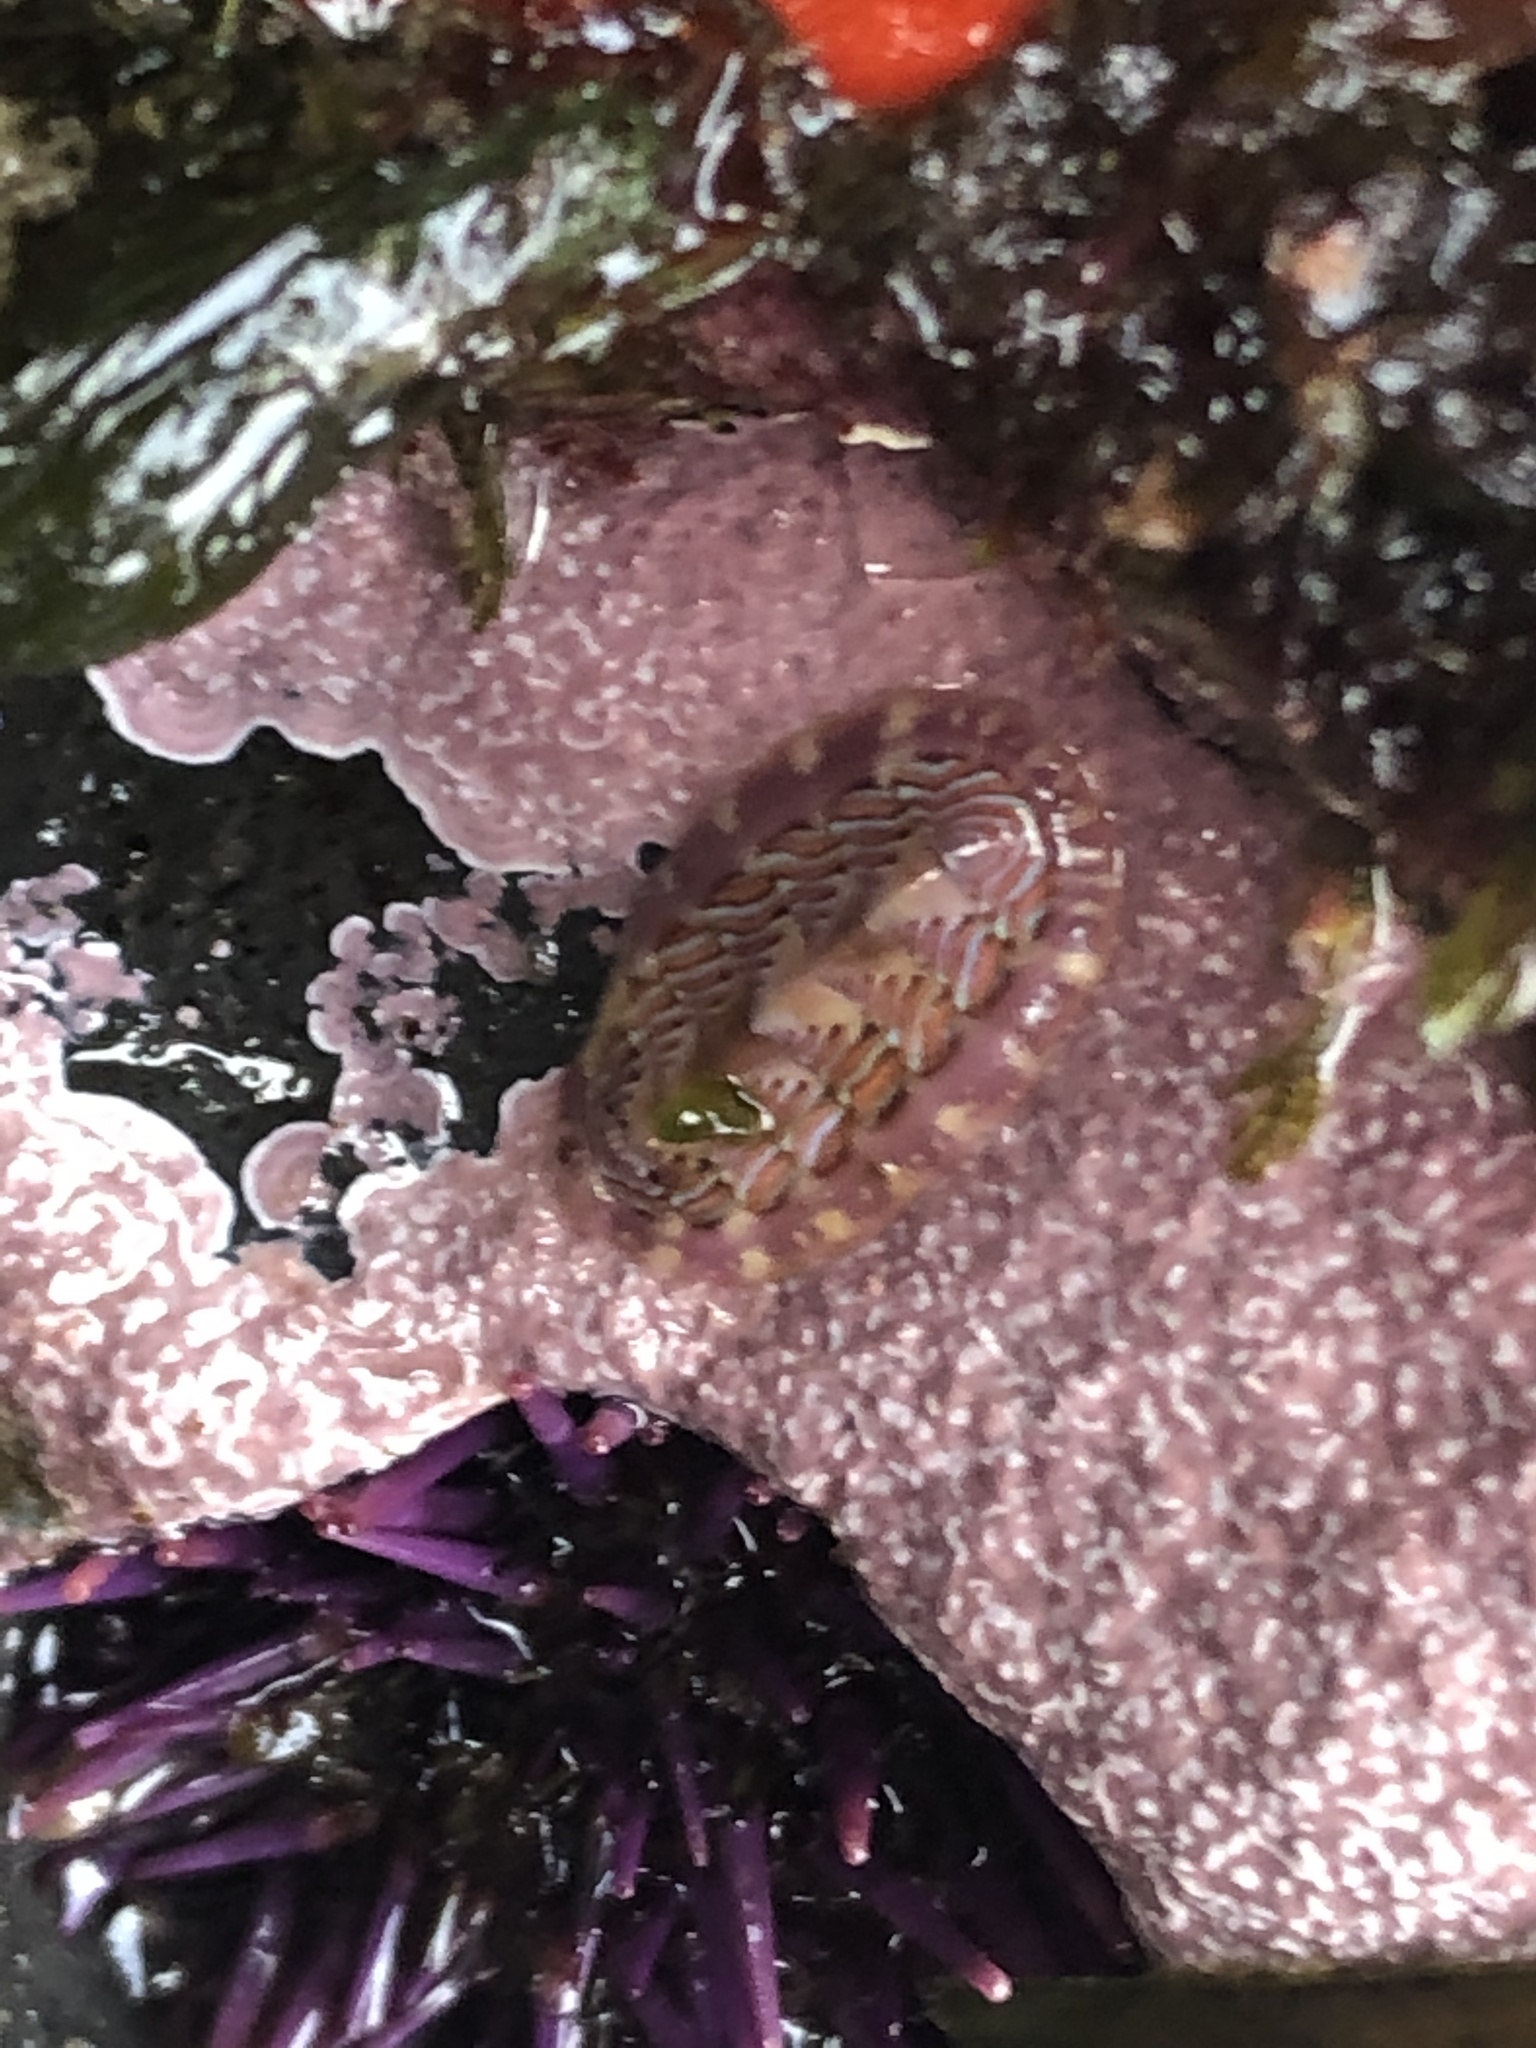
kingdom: Animalia
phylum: Mollusca
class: Polyplacophora
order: Chitonida
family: Tonicellidae
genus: Tonicella
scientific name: Tonicella lineata
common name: Lined chiton
